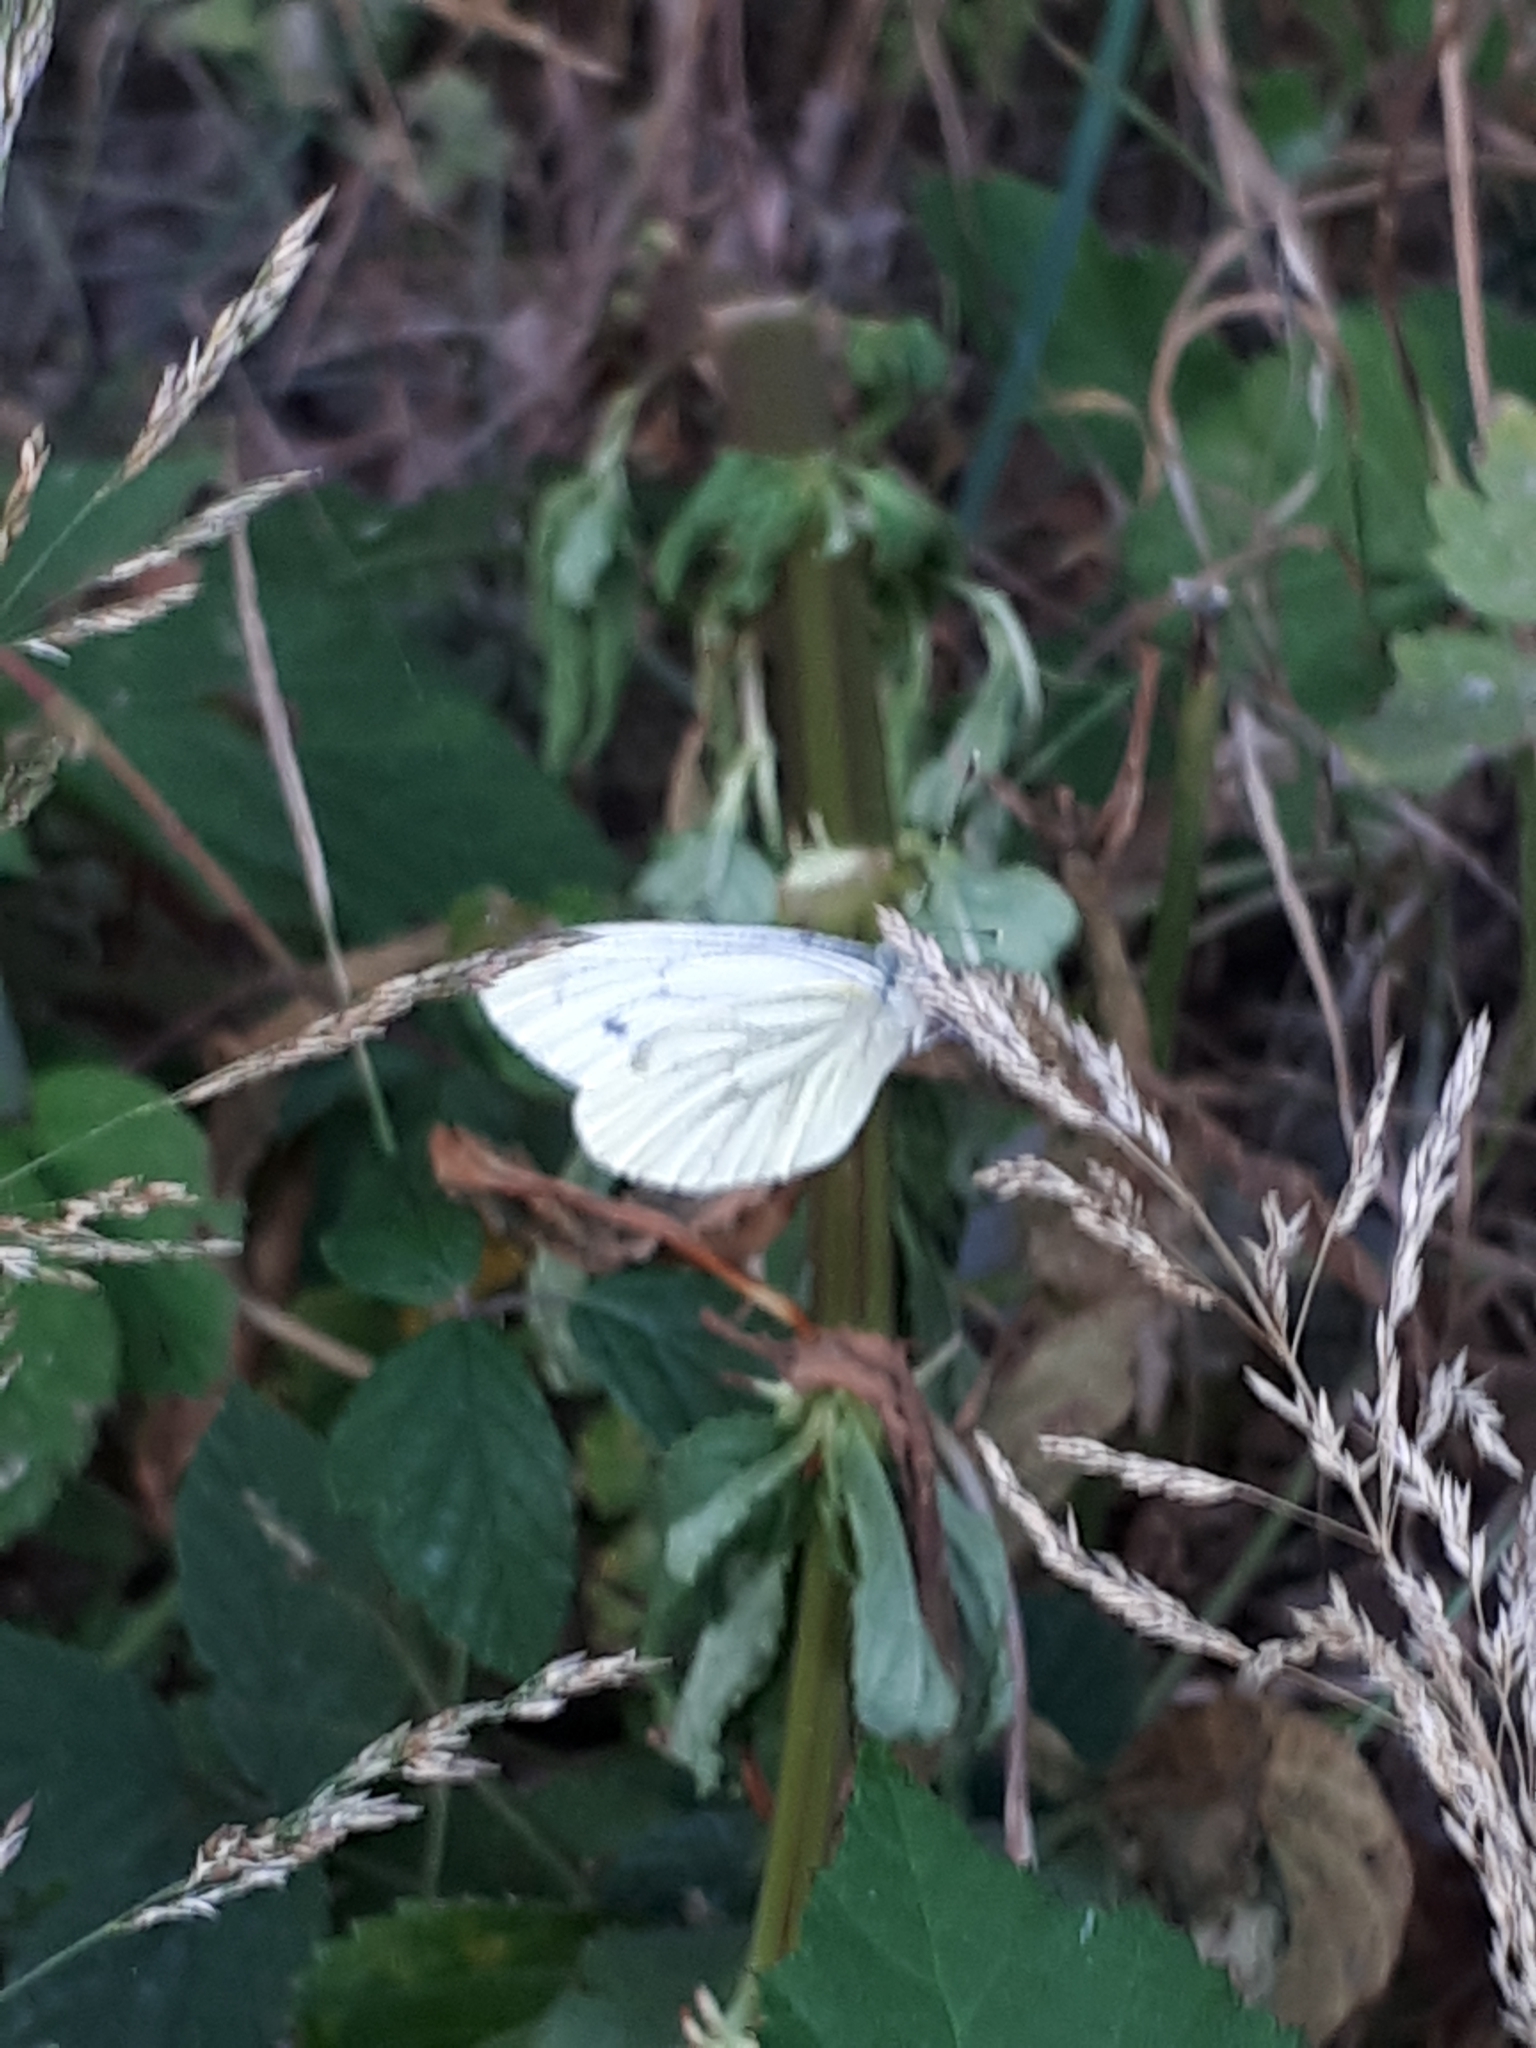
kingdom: Animalia
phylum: Arthropoda
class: Insecta
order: Lepidoptera
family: Pieridae
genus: Pieris
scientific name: Pieris napi
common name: Green-veined white
